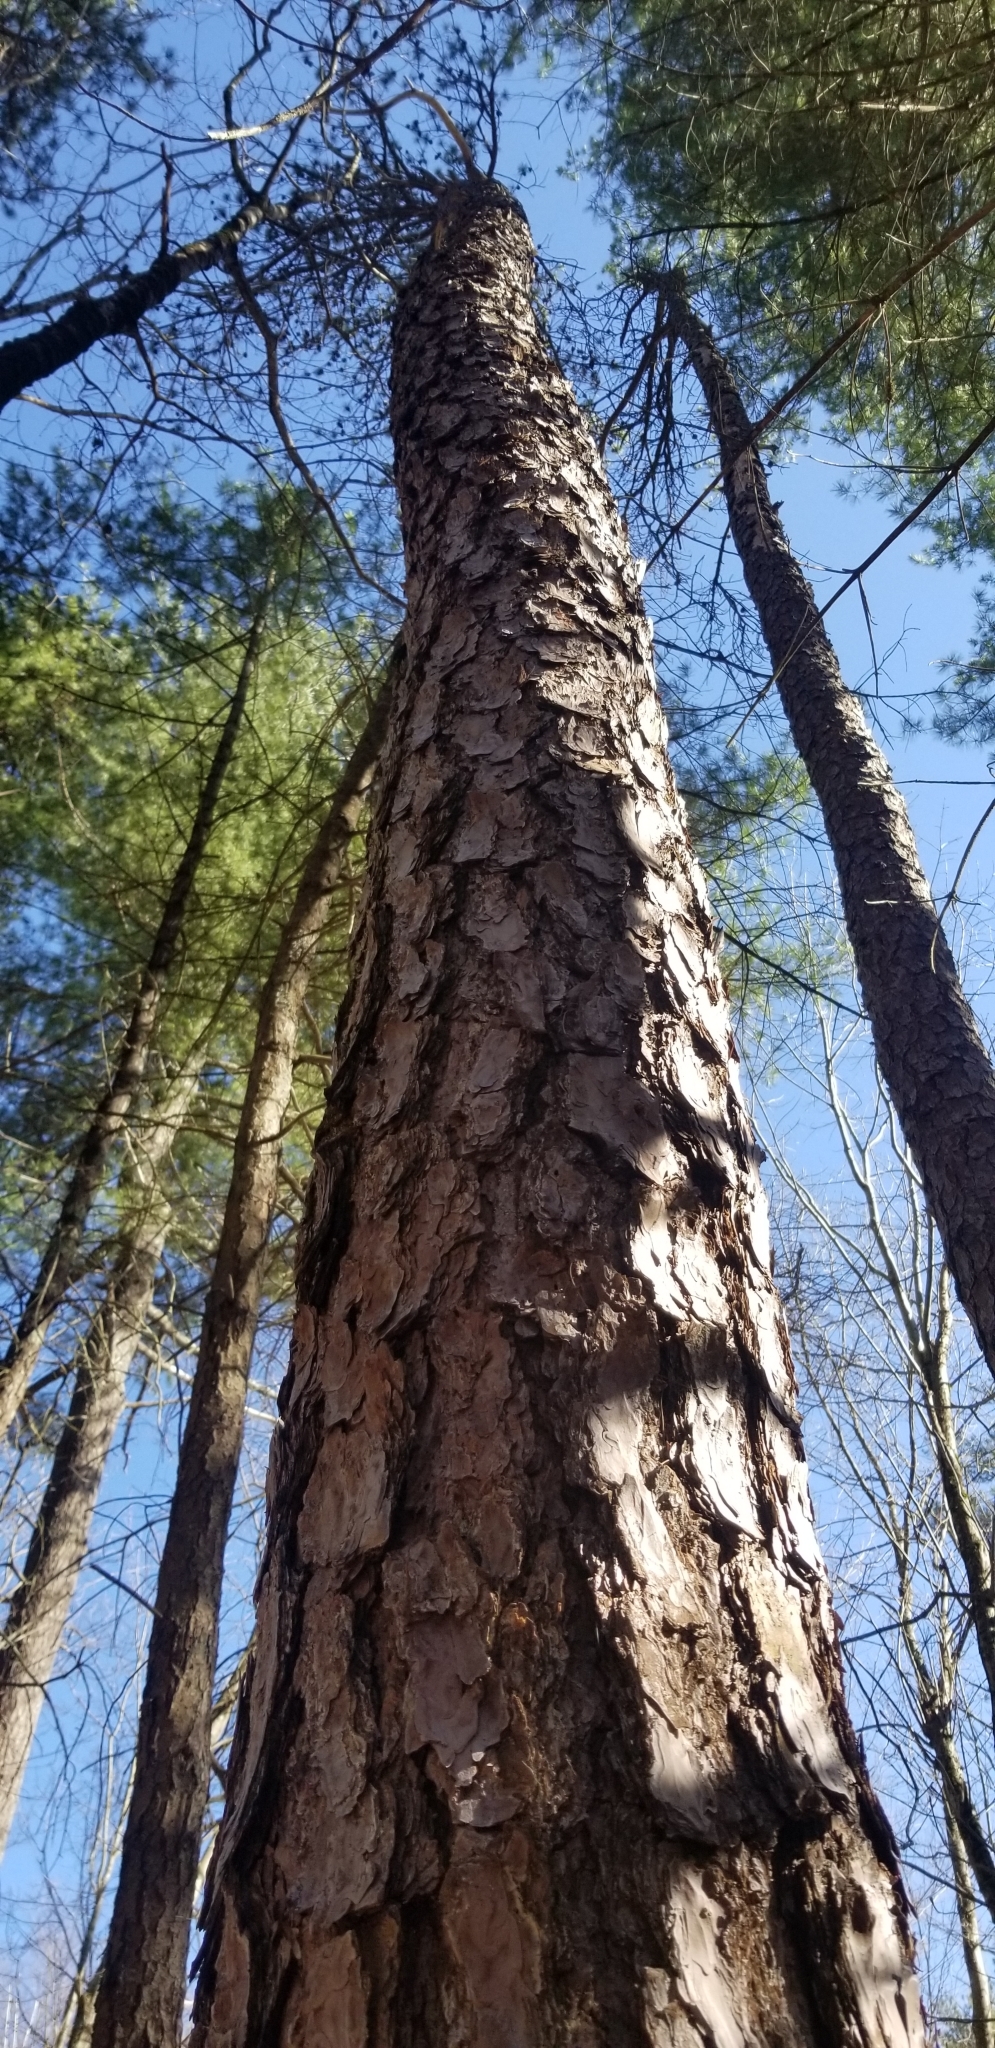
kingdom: Plantae
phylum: Tracheophyta
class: Pinopsida
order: Pinales
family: Pinaceae
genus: Pinus
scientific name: Pinus rigida
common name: Pitch pine
